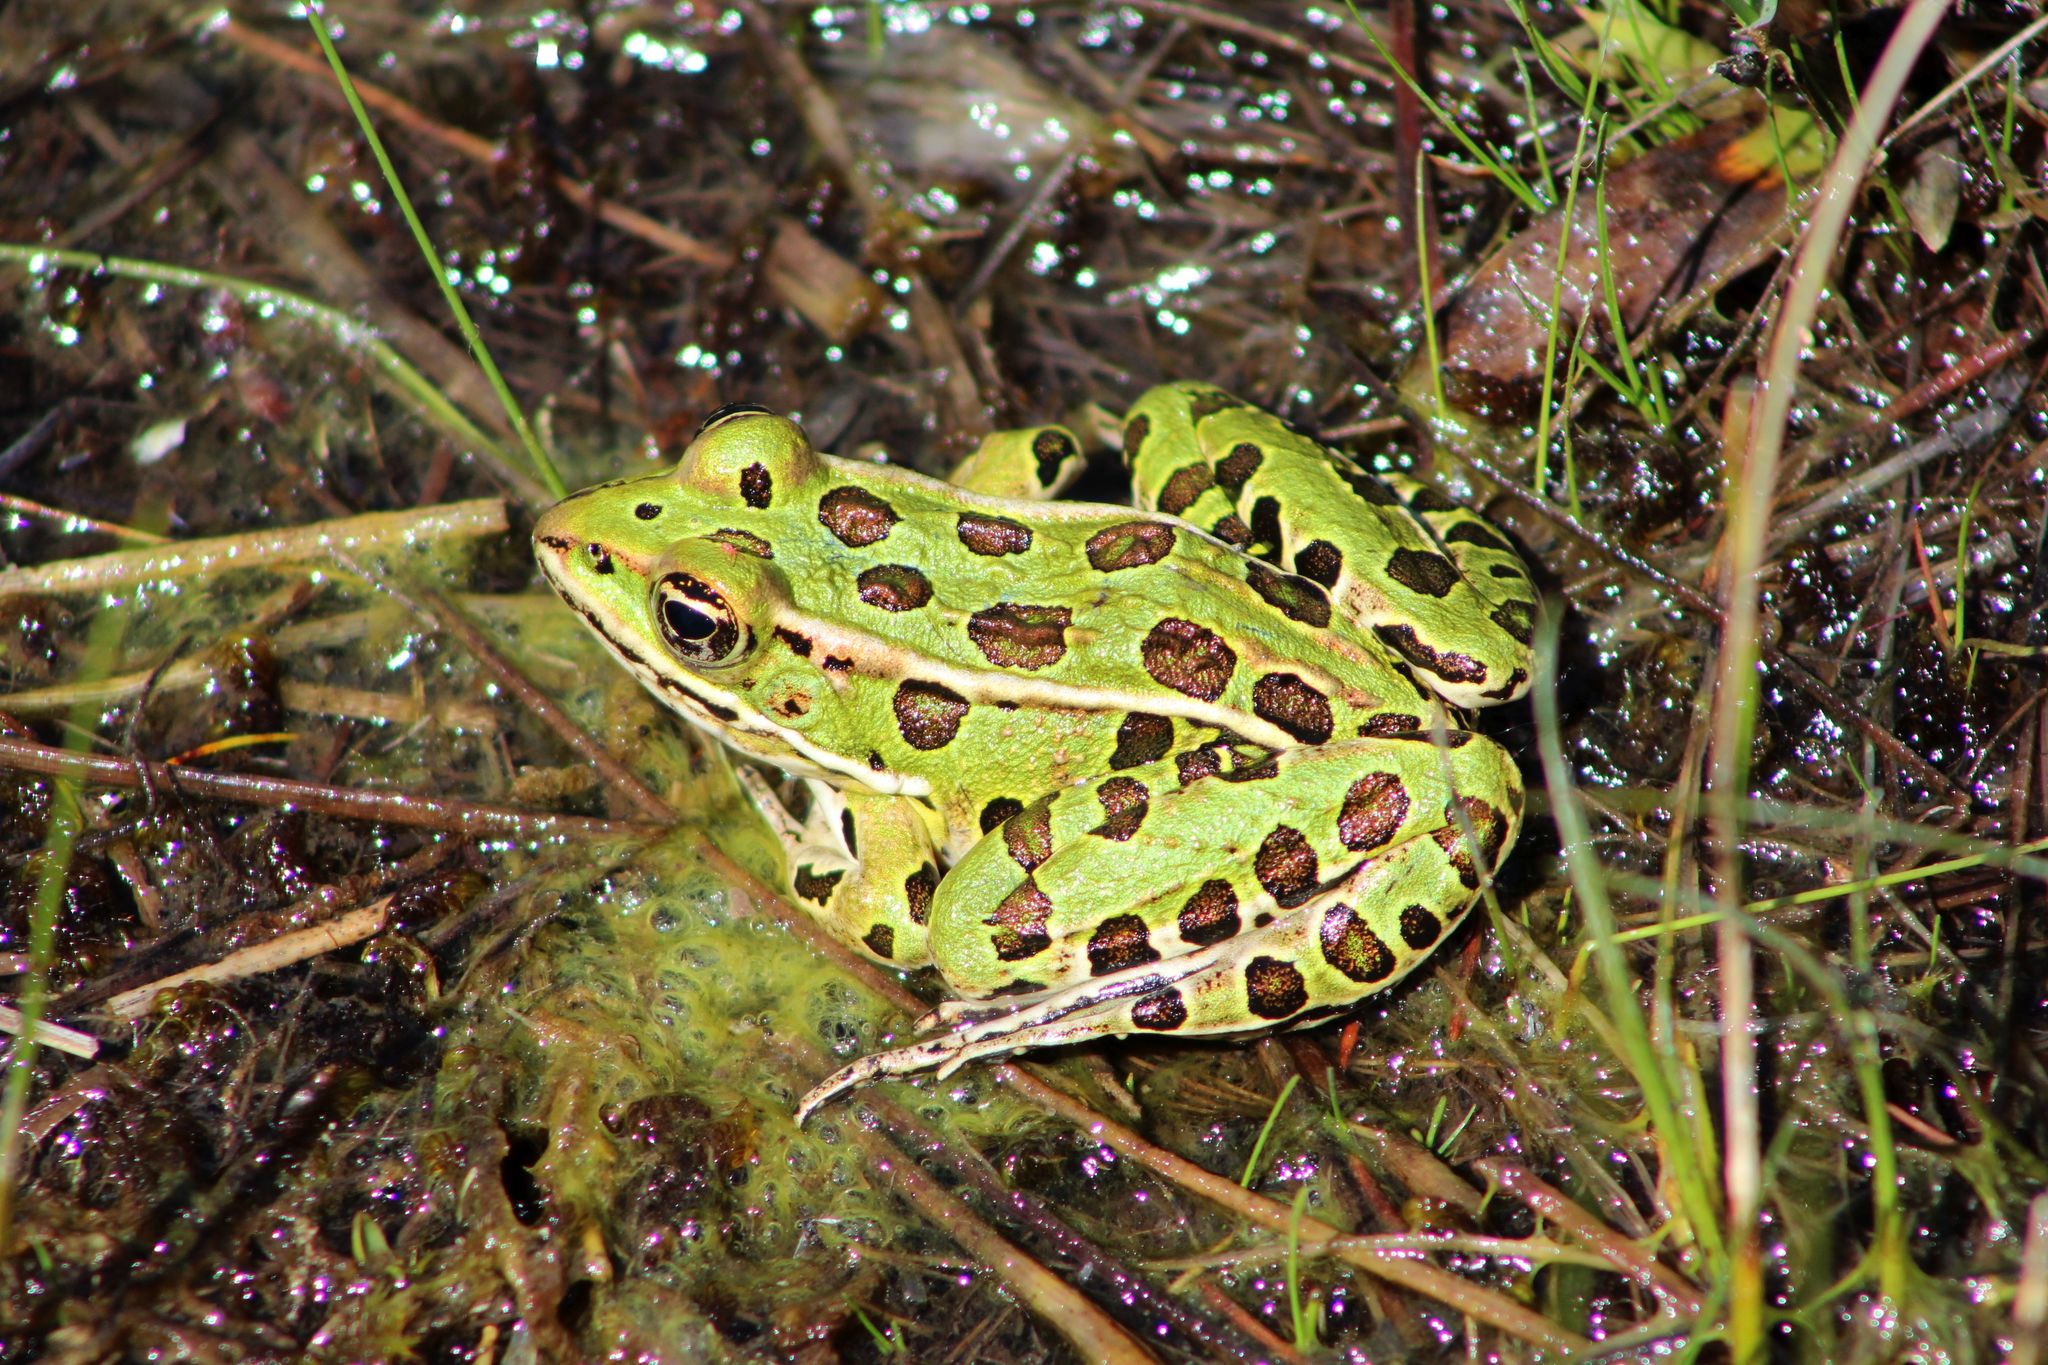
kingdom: Animalia
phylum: Chordata
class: Amphibia
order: Anura
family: Ranidae
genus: Lithobates
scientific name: Lithobates pipiens
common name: Northern leopard frog
